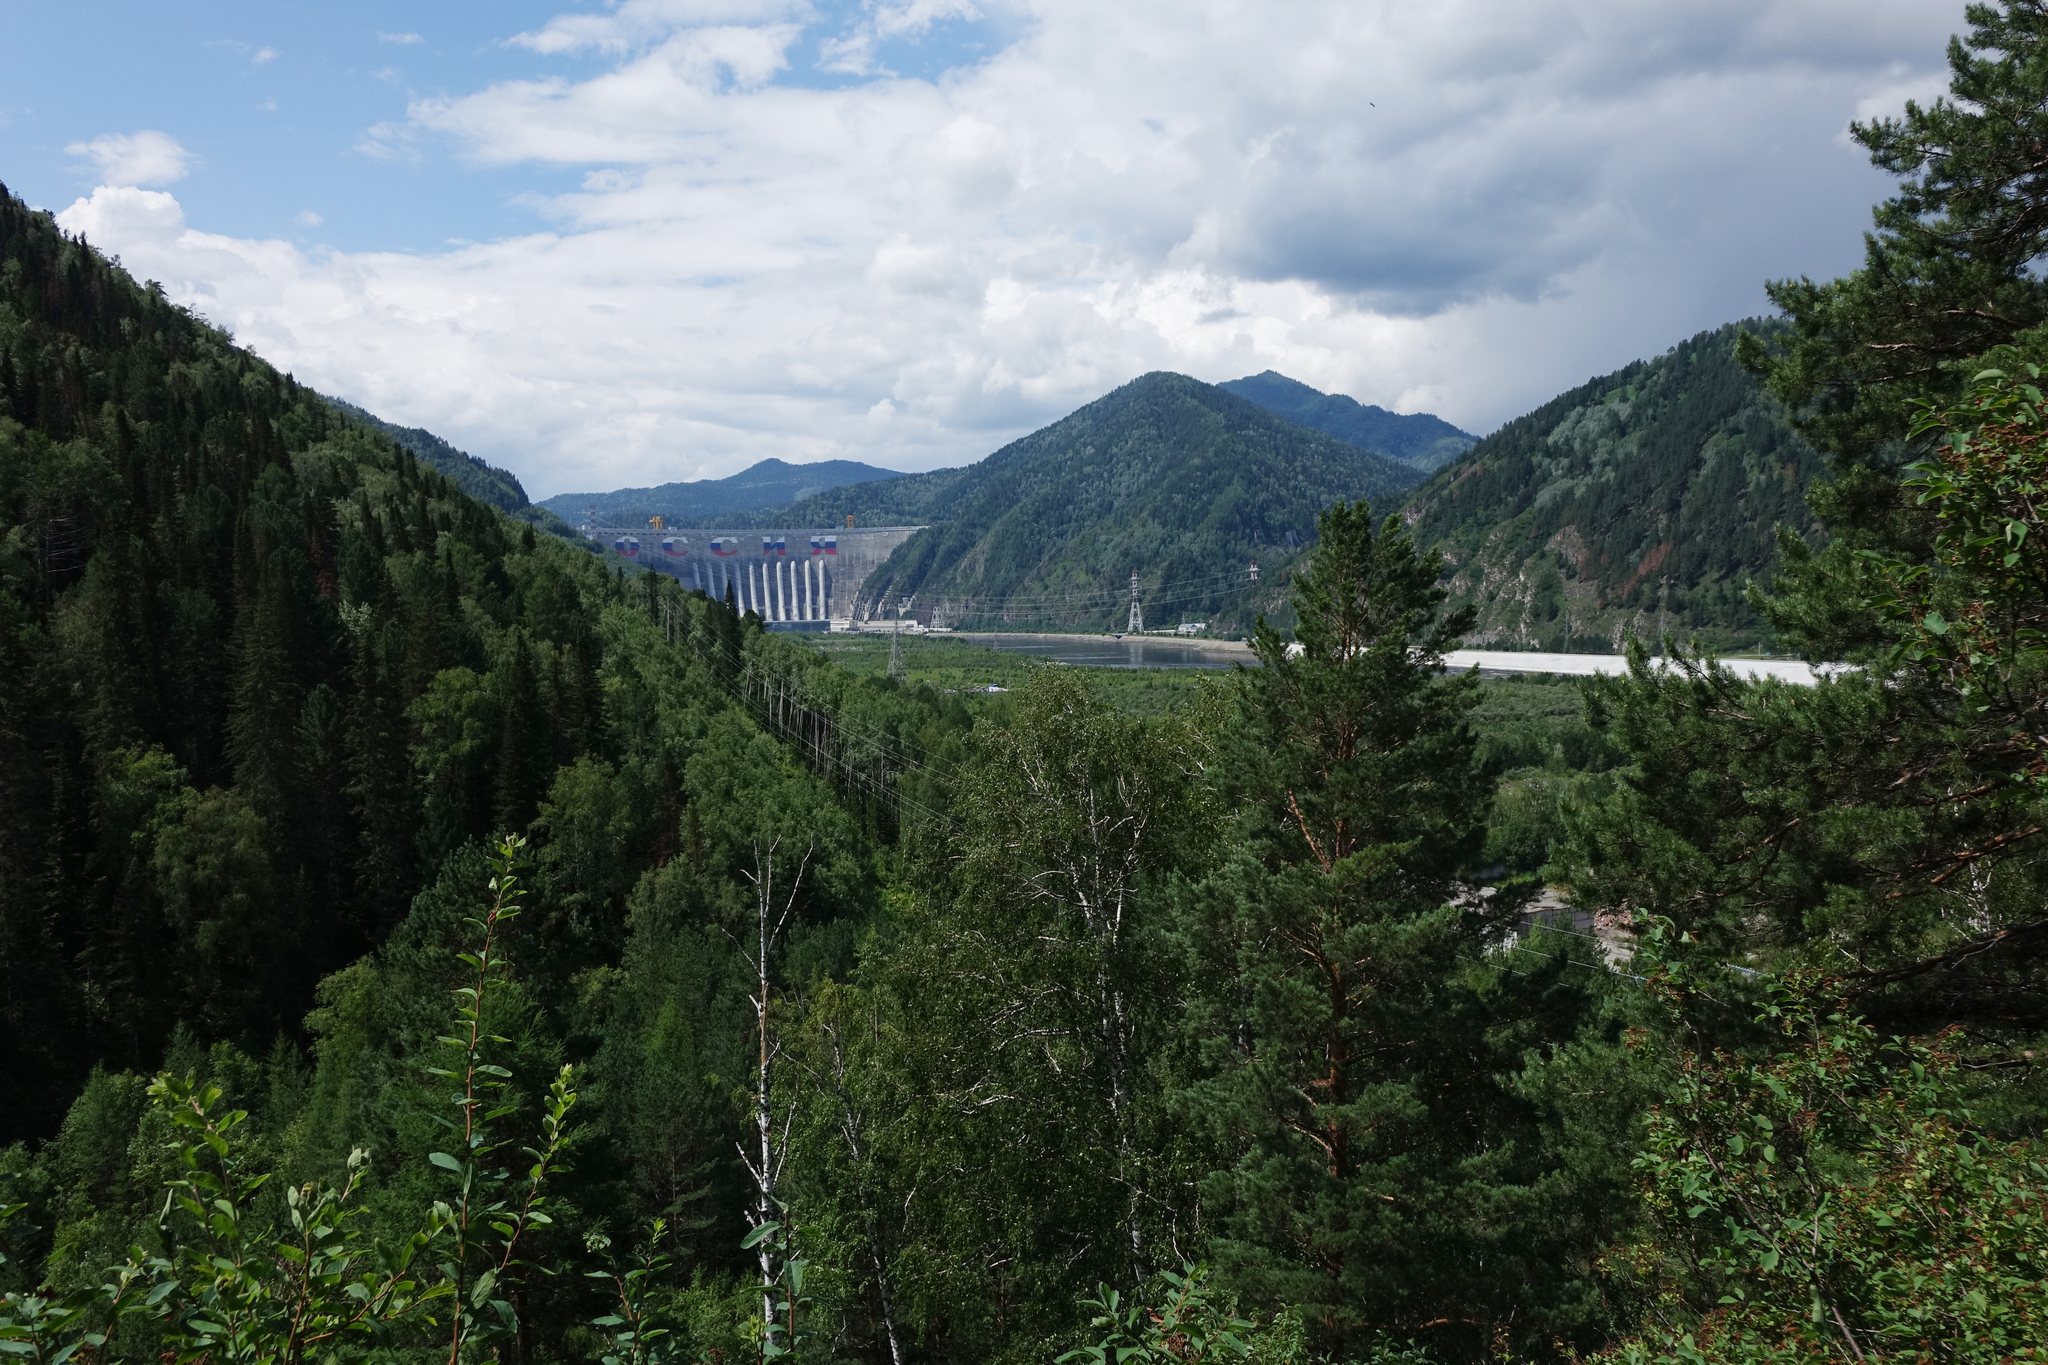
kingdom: Plantae
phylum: Tracheophyta
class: Pinopsida
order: Pinales
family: Pinaceae
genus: Pinus
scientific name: Pinus sylvestris
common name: Scots pine
